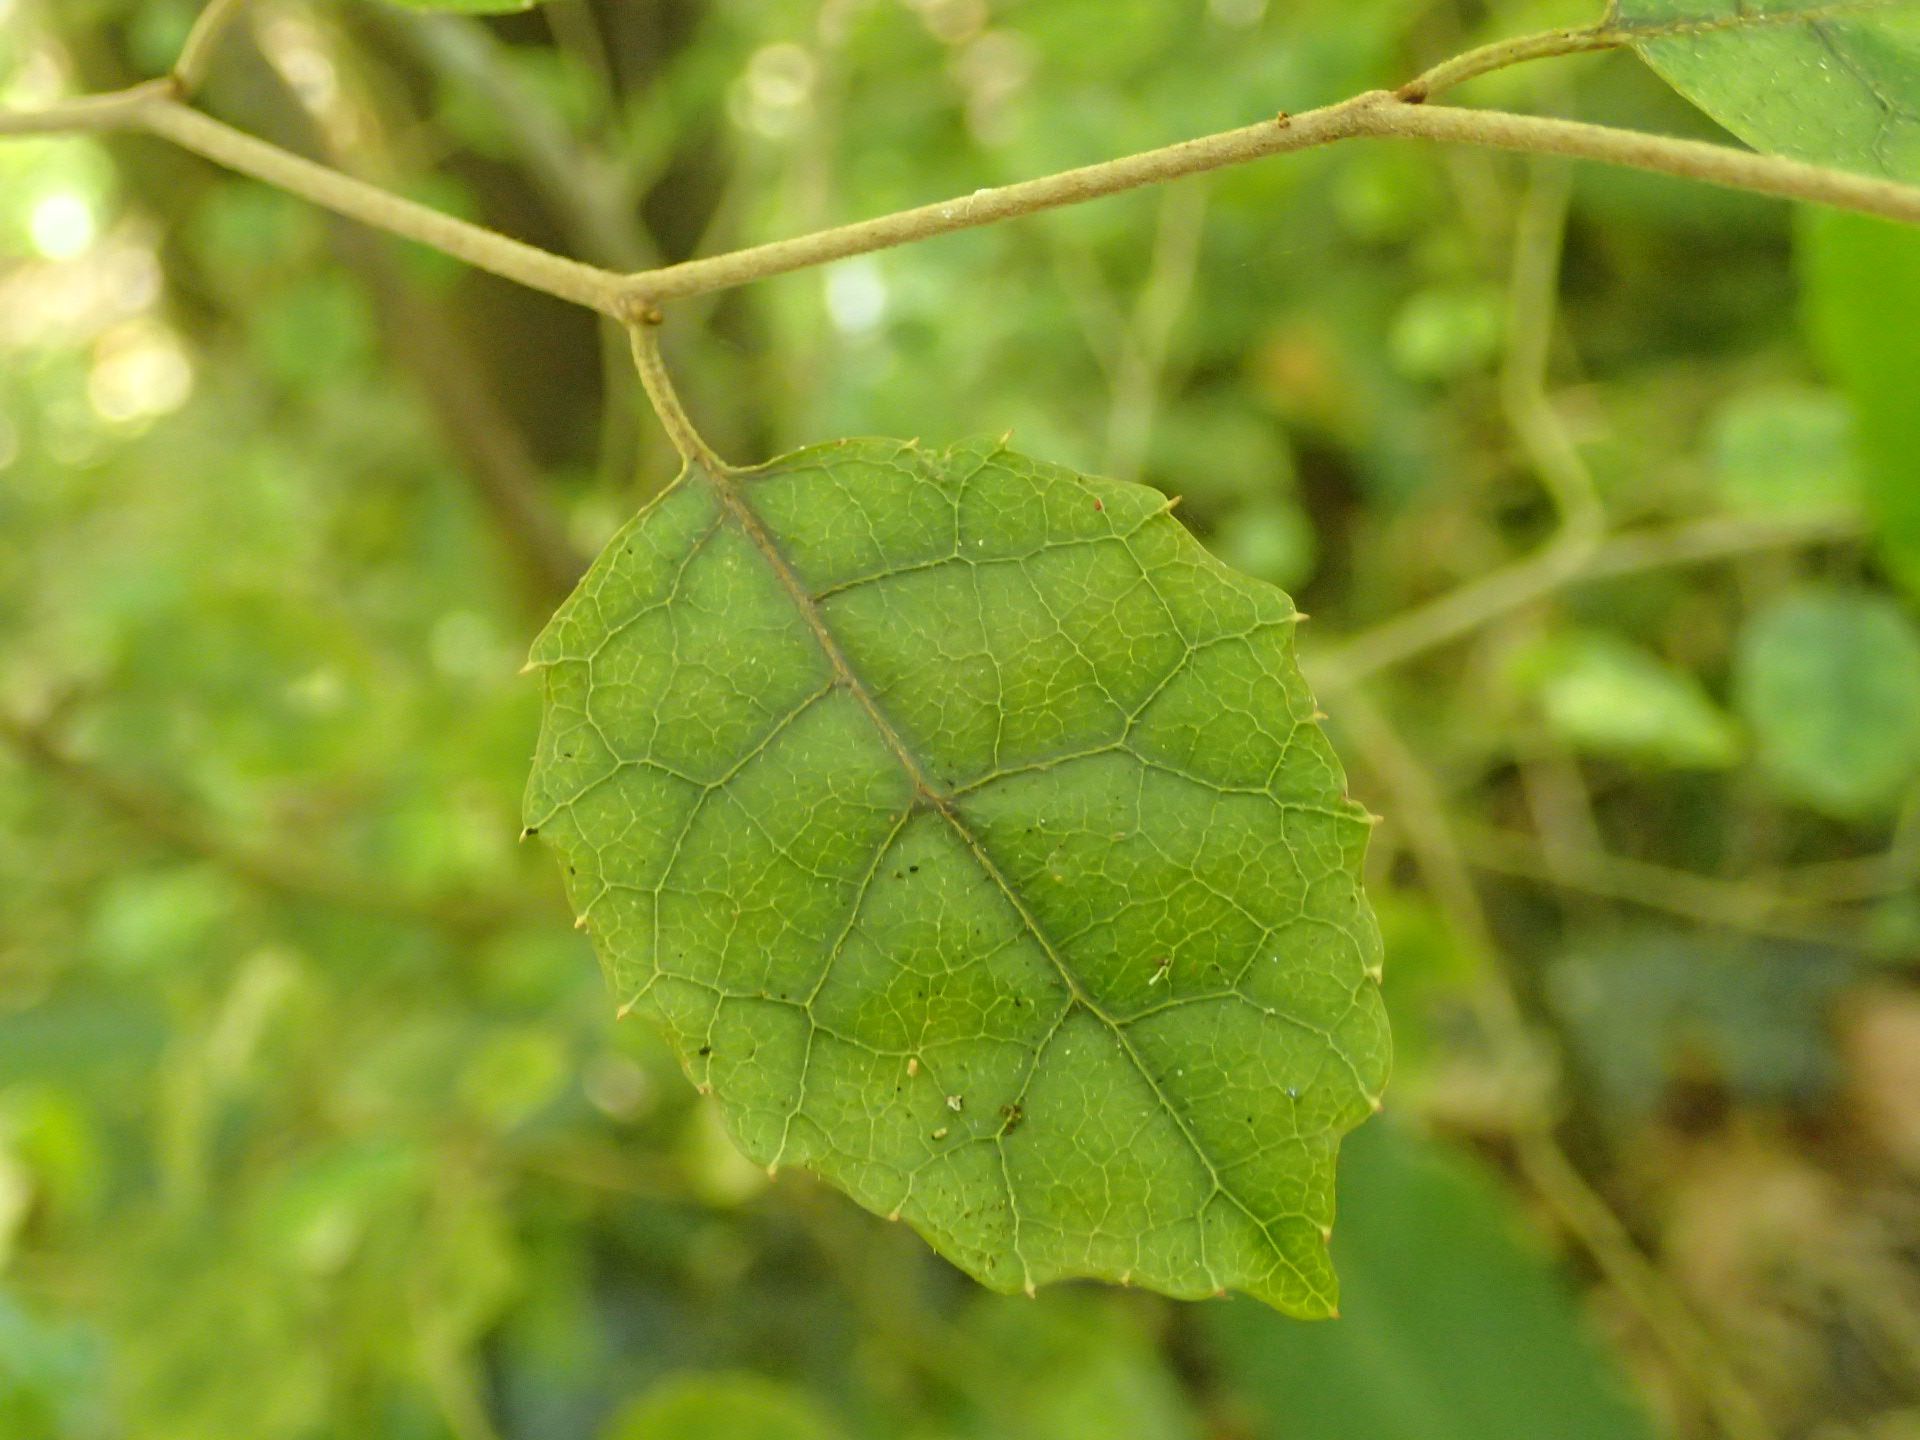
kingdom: Plantae
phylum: Tracheophyta
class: Magnoliopsida
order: Asterales
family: Rousseaceae
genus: Carpodetus
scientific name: Carpodetus serratus
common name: White mapau
